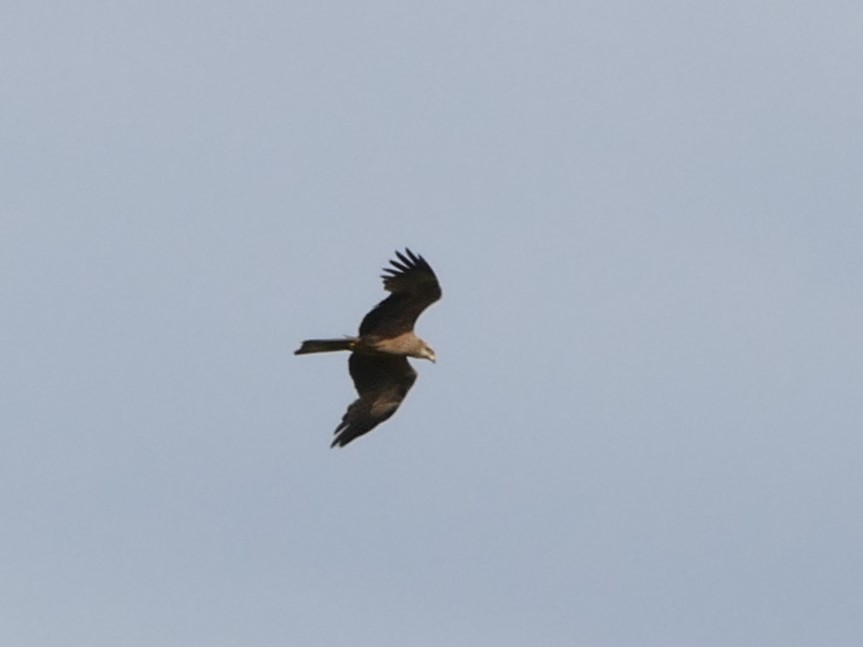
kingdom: Animalia
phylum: Chordata
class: Aves
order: Accipitriformes
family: Accipitridae
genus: Milvus
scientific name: Milvus migrans
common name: Black kite
